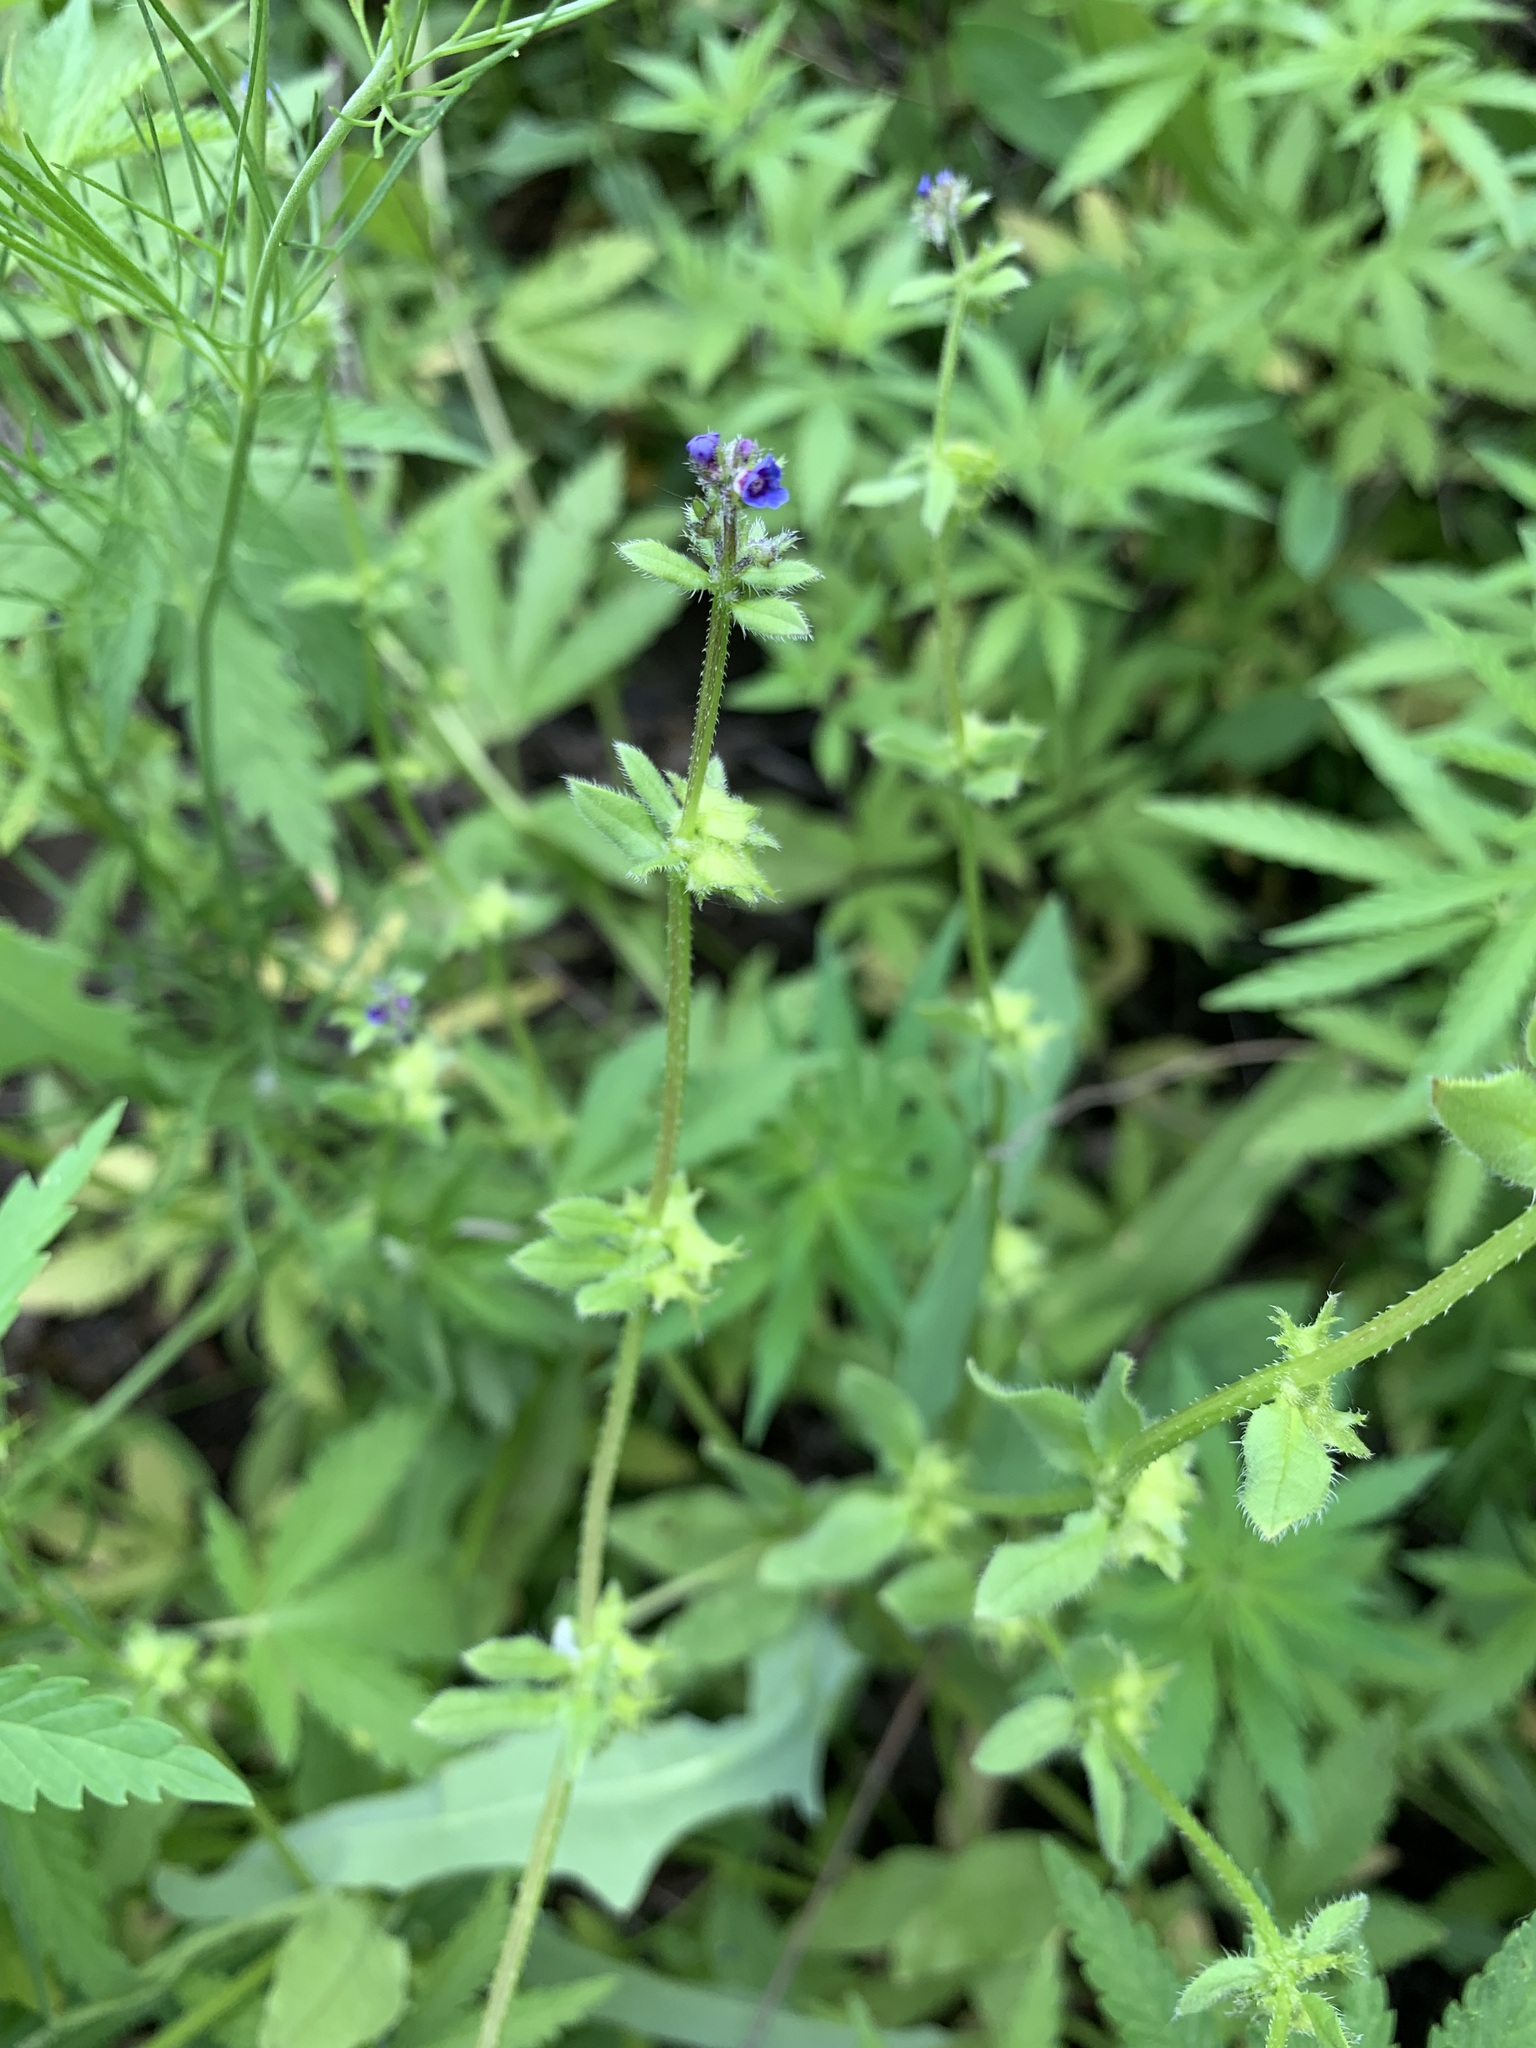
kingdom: Plantae
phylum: Tracheophyta
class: Magnoliopsida
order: Boraginales
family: Boraginaceae
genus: Asperugo
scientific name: Asperugo procumbens
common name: Madwort
